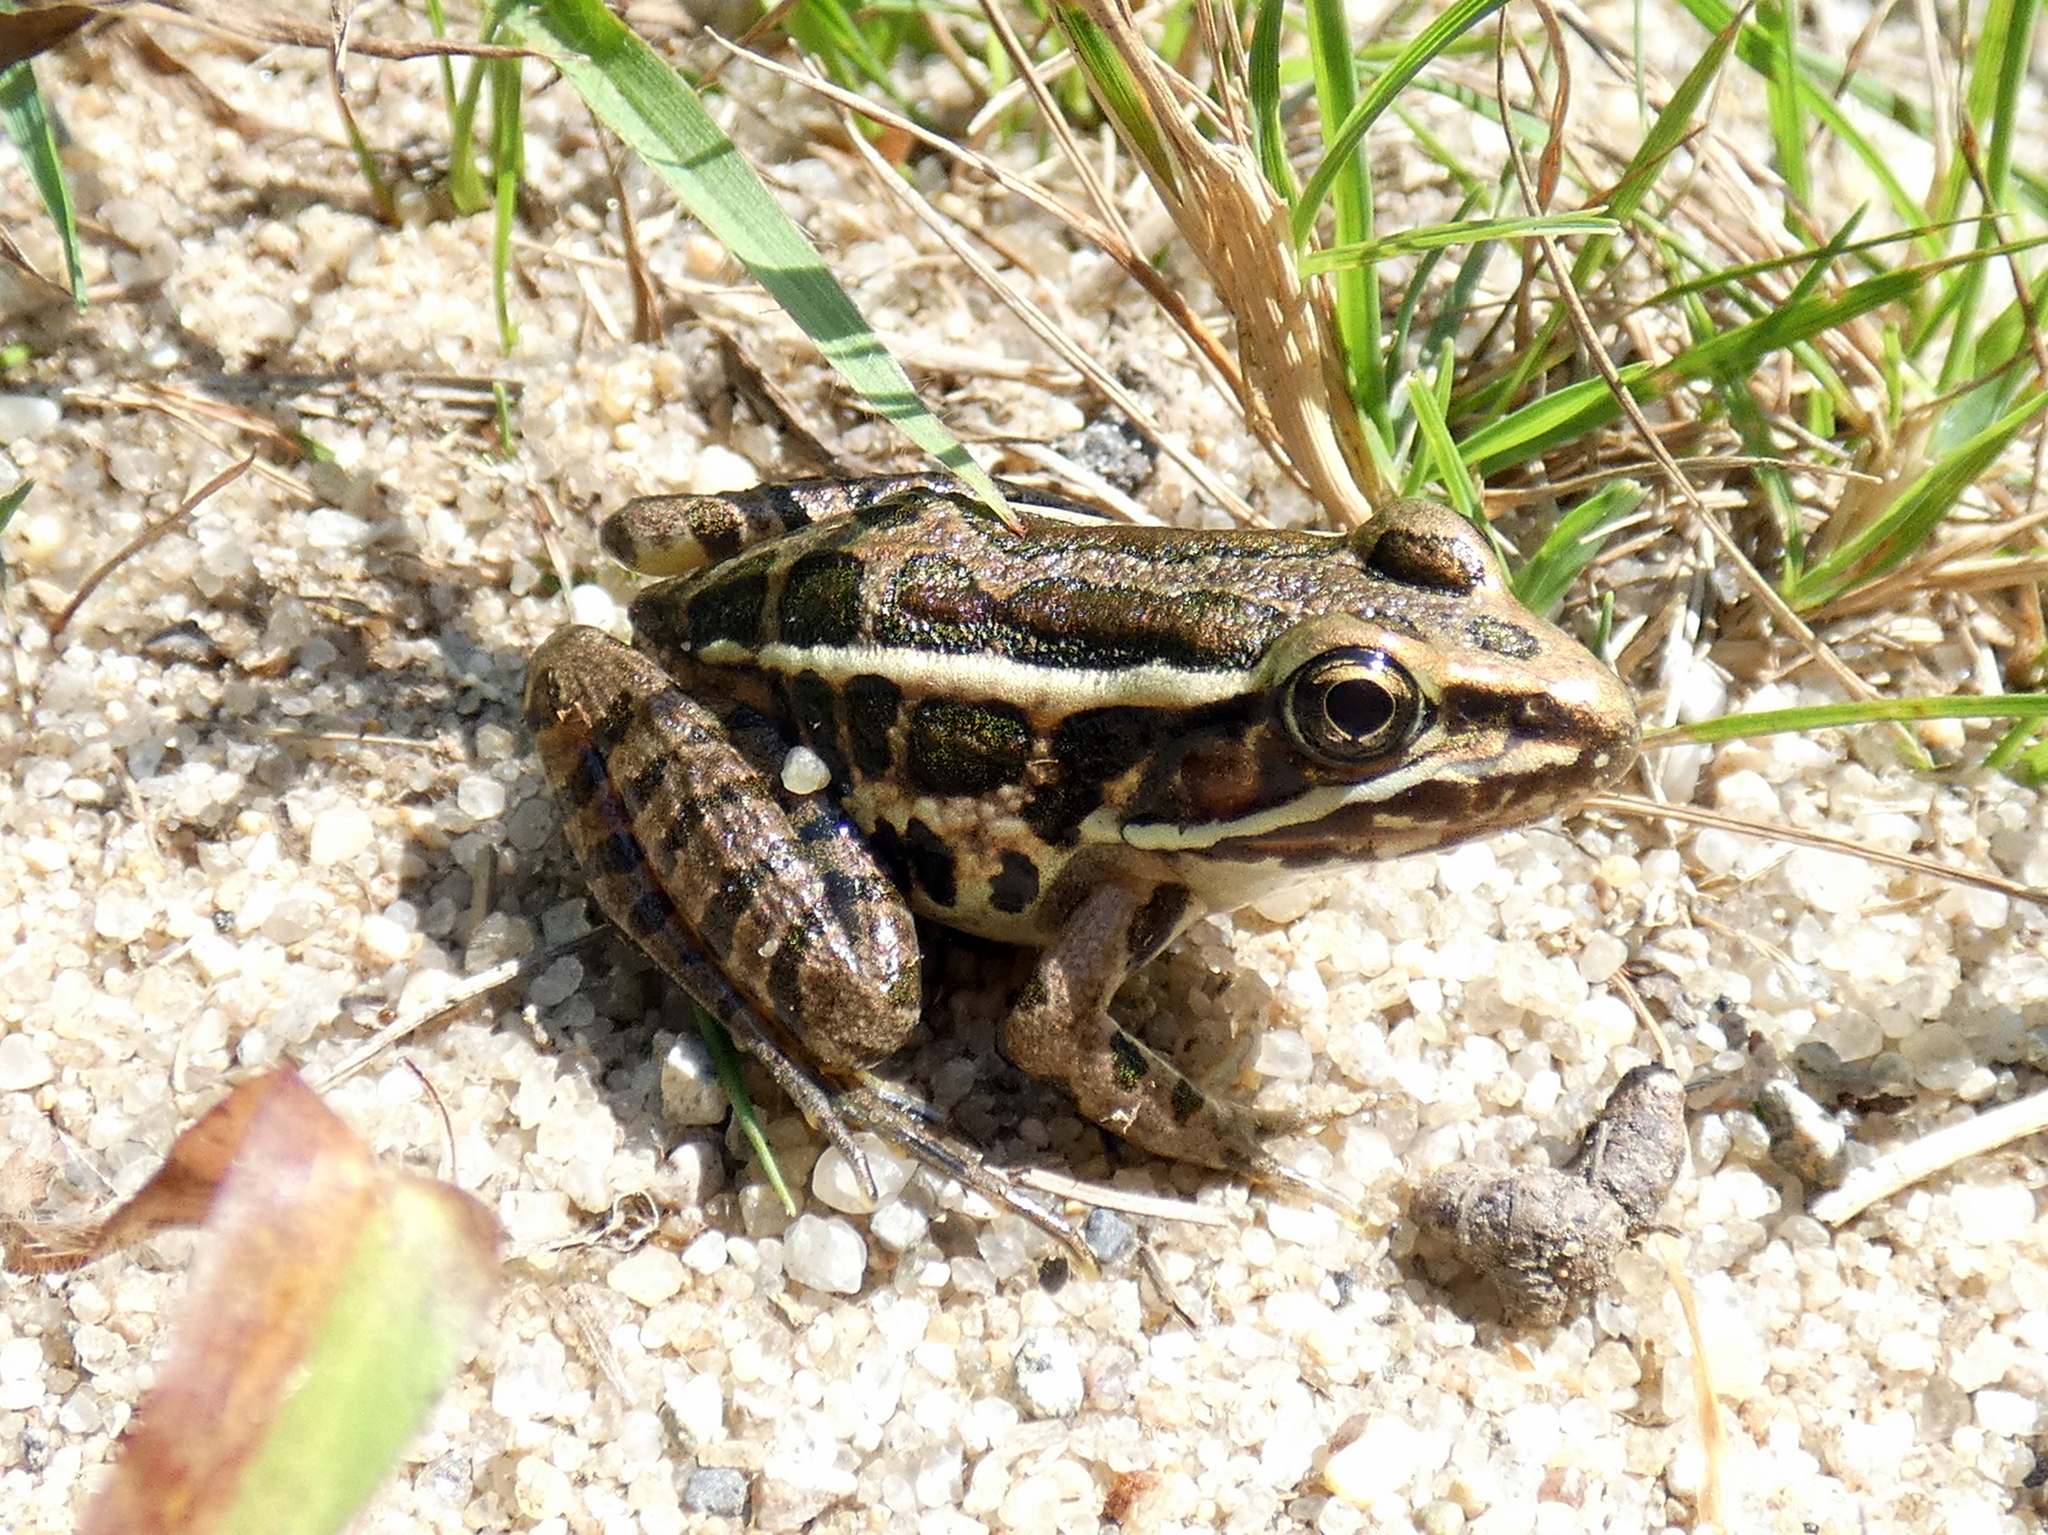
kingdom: Animalia
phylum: Chordata
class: Amphibia
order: Anura
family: Ranidae
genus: Lithobates
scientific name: Lithobates palustris
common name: Pickerel frog
